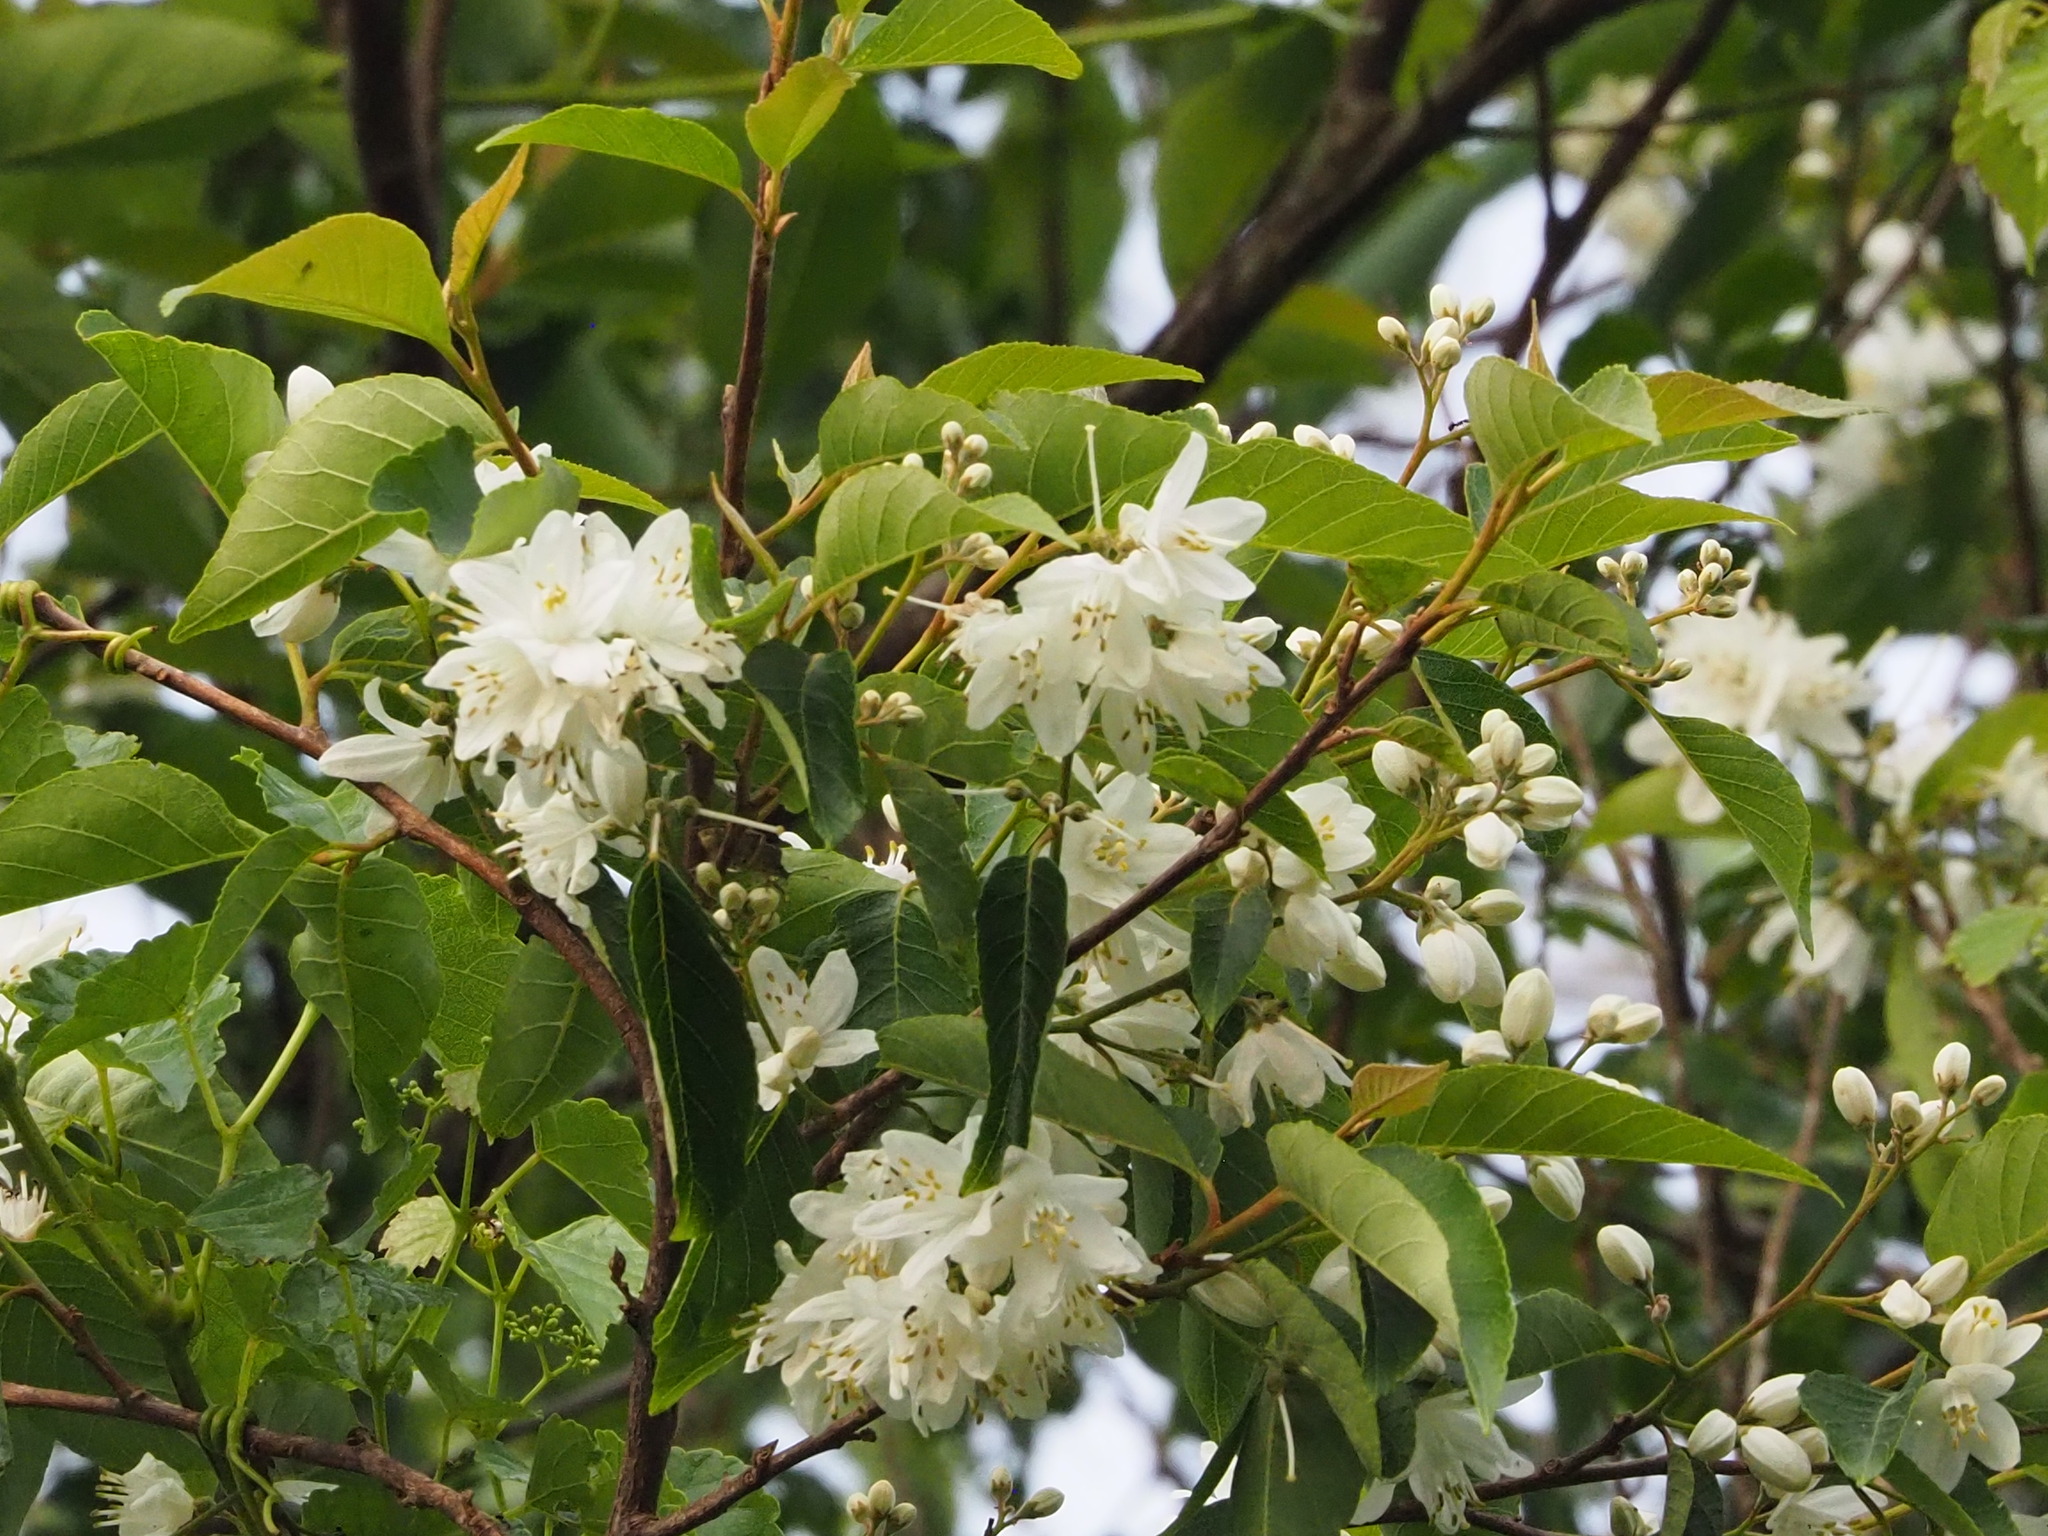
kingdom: Plantae
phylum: Tracheophyta
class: Magnoliopsida
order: Ericales
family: Styracaceae
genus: Alniphyllum
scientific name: Alniphyllum pterospermum
